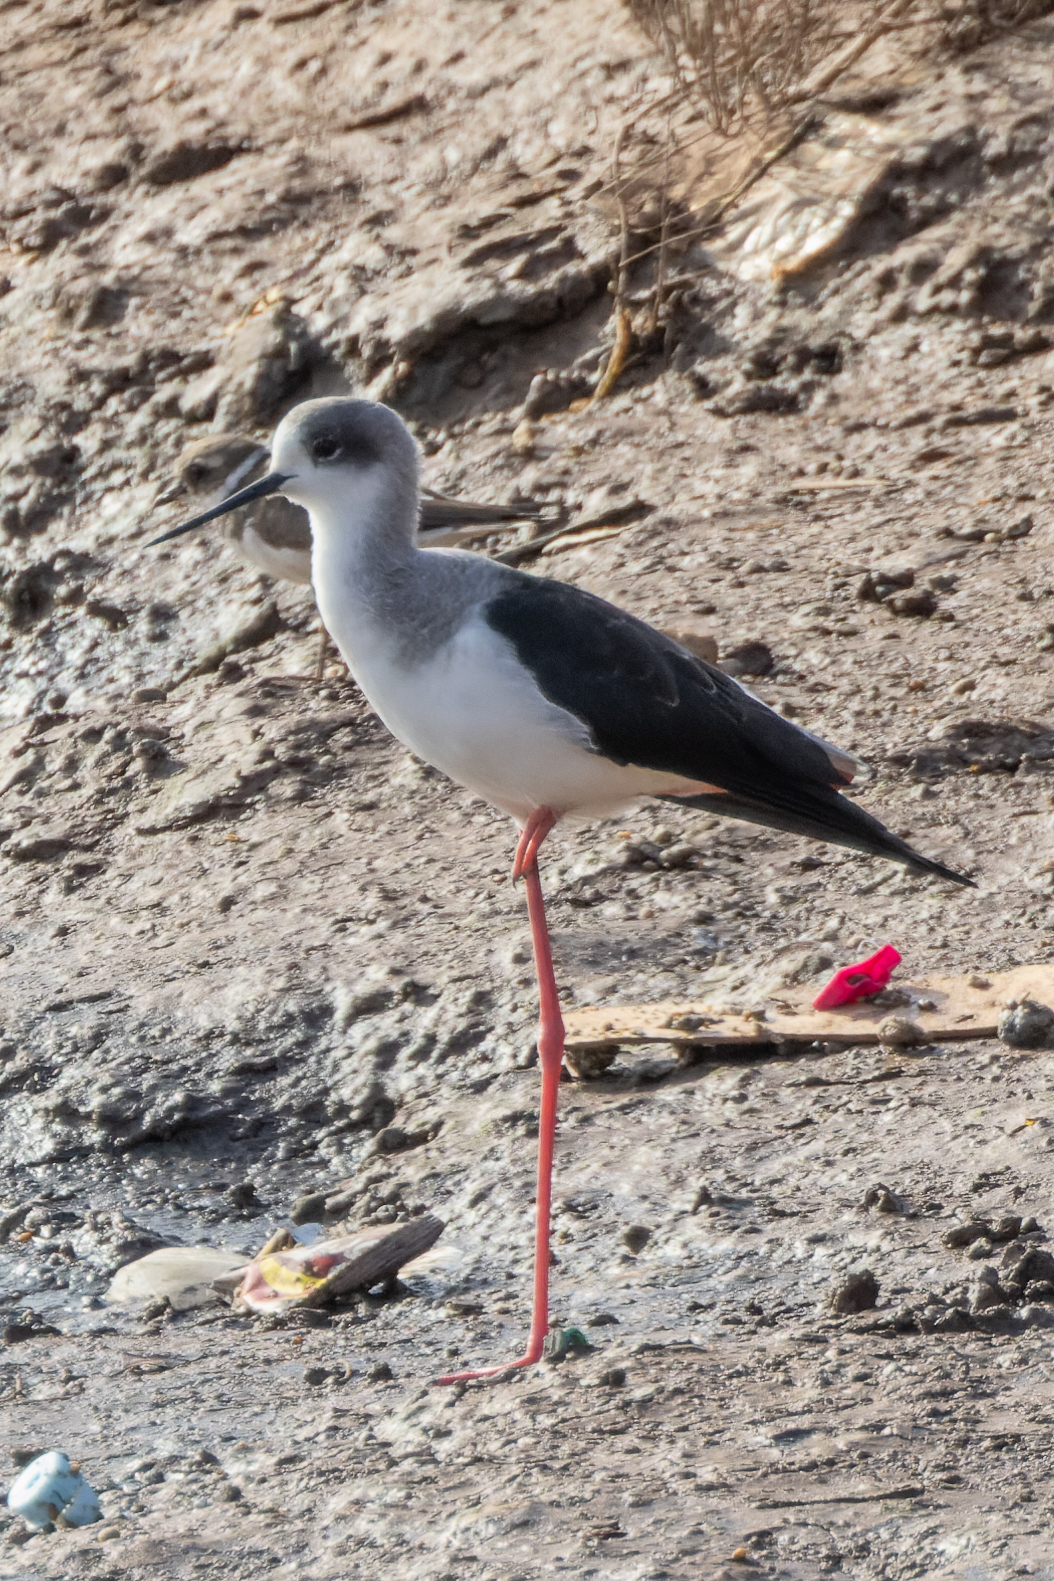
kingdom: Animalia
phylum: Chordata
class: Aves
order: Charadriiformes
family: Recurvirostridae
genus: Himantopus
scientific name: Himantopus himantopus
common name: Black-winged stilt
